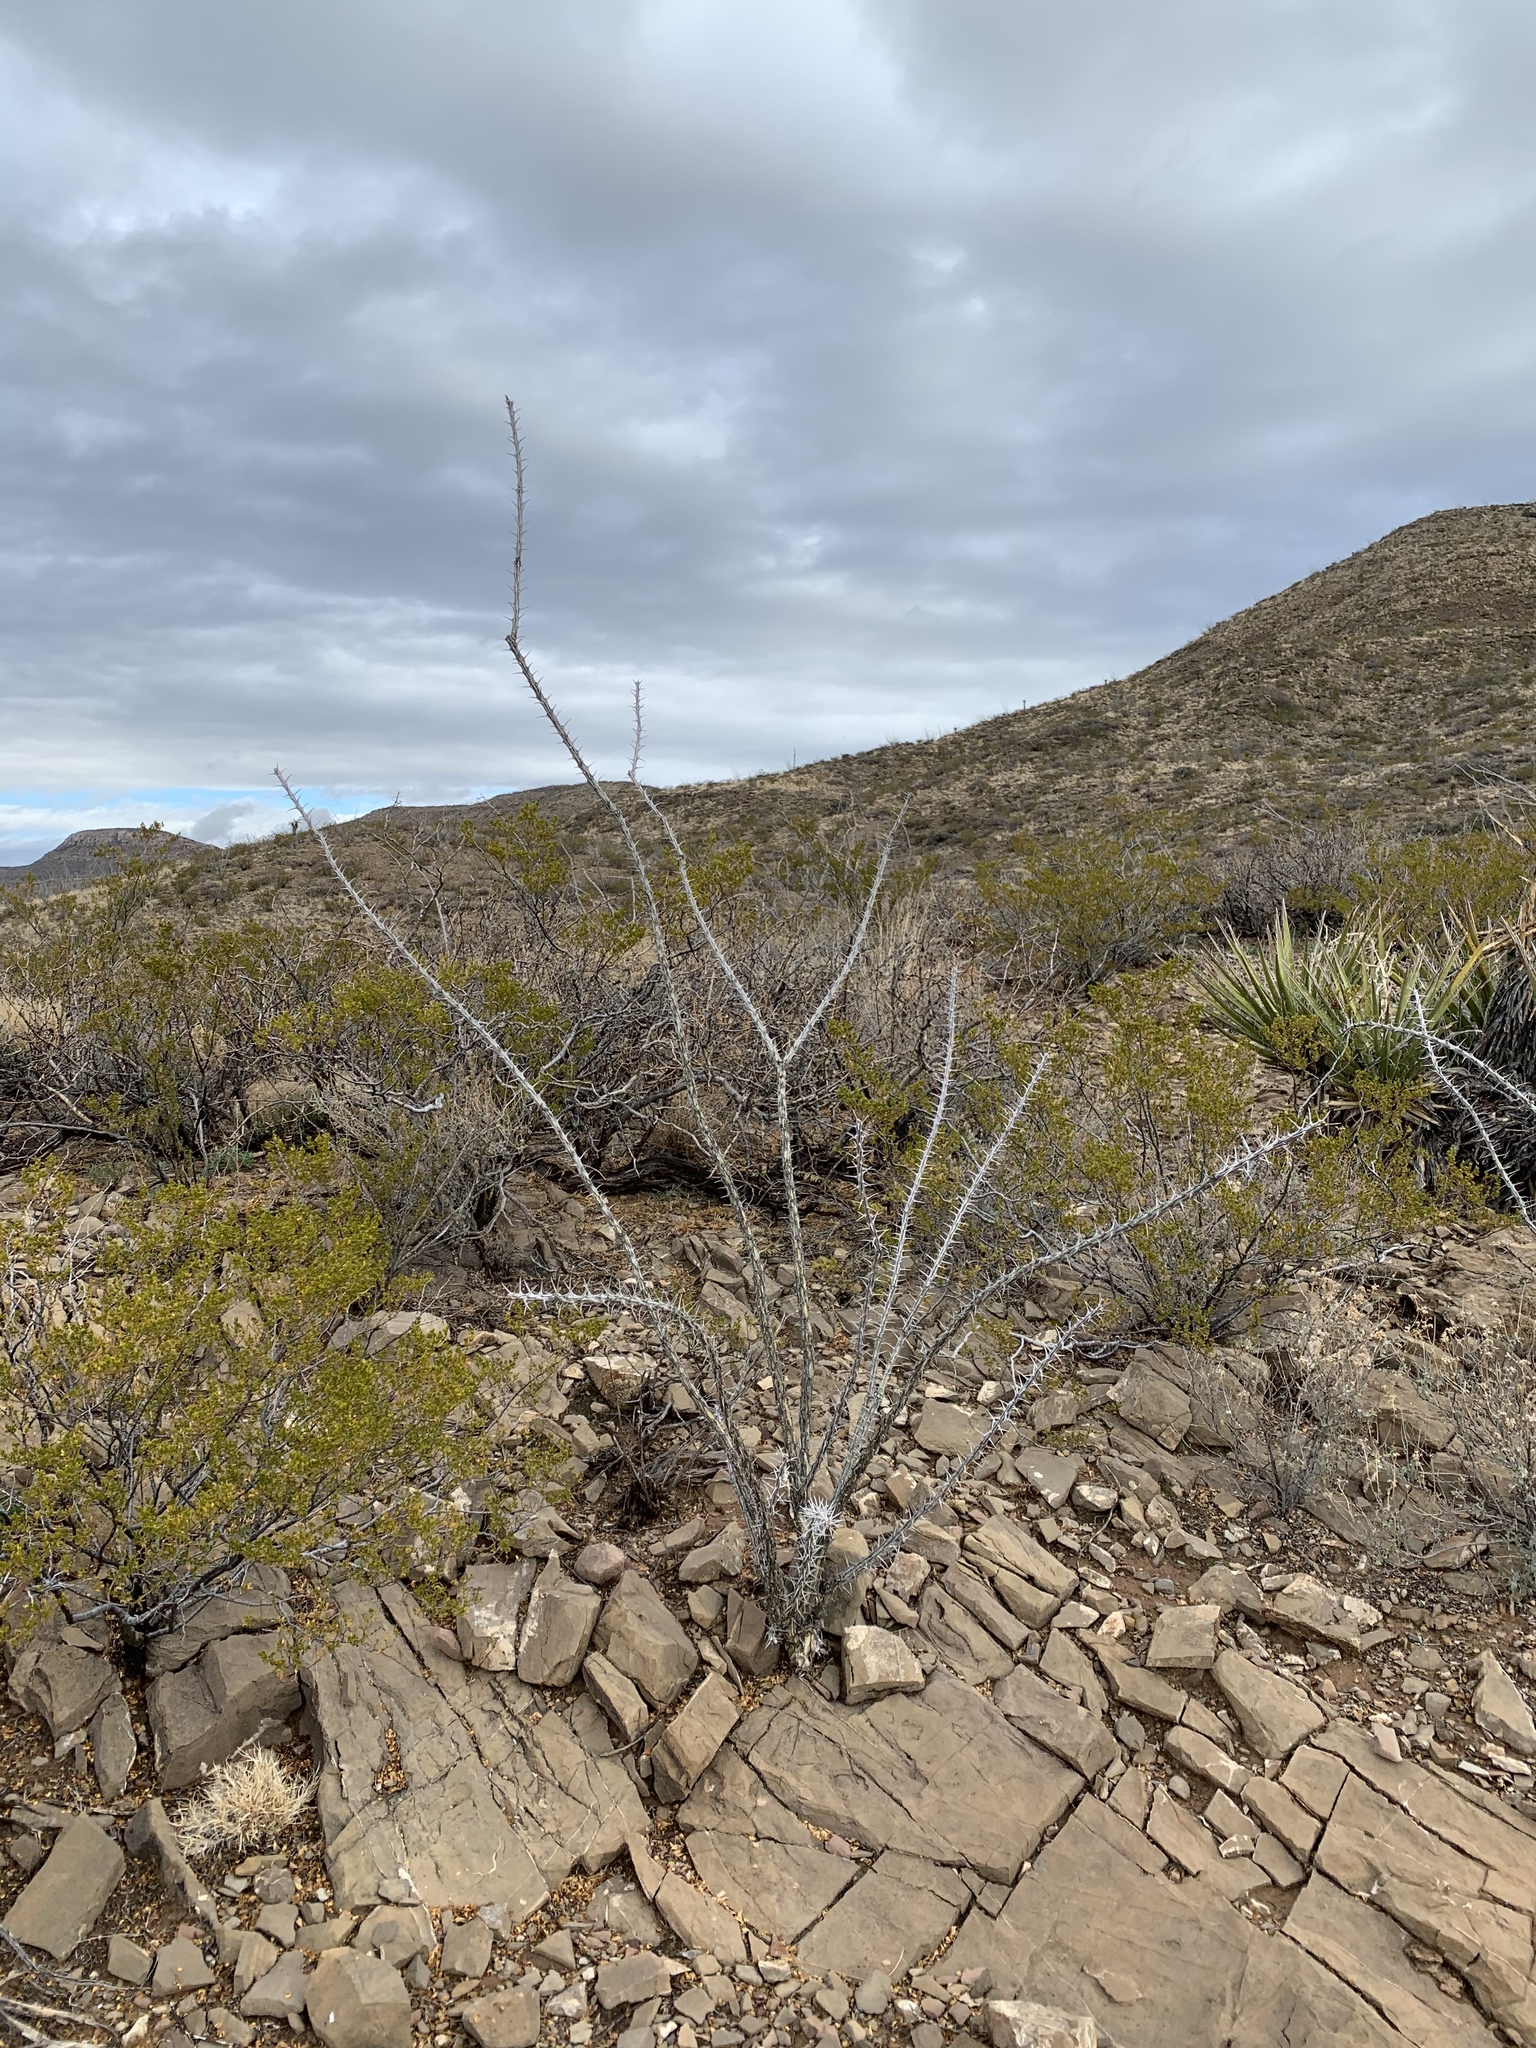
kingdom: Plantae
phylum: Tracheophyta
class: Magnoliopsida
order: Ericales
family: Fouquieriaceae
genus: Fouquieria
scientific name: Fouquieria splendens
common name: Vine-cactus
